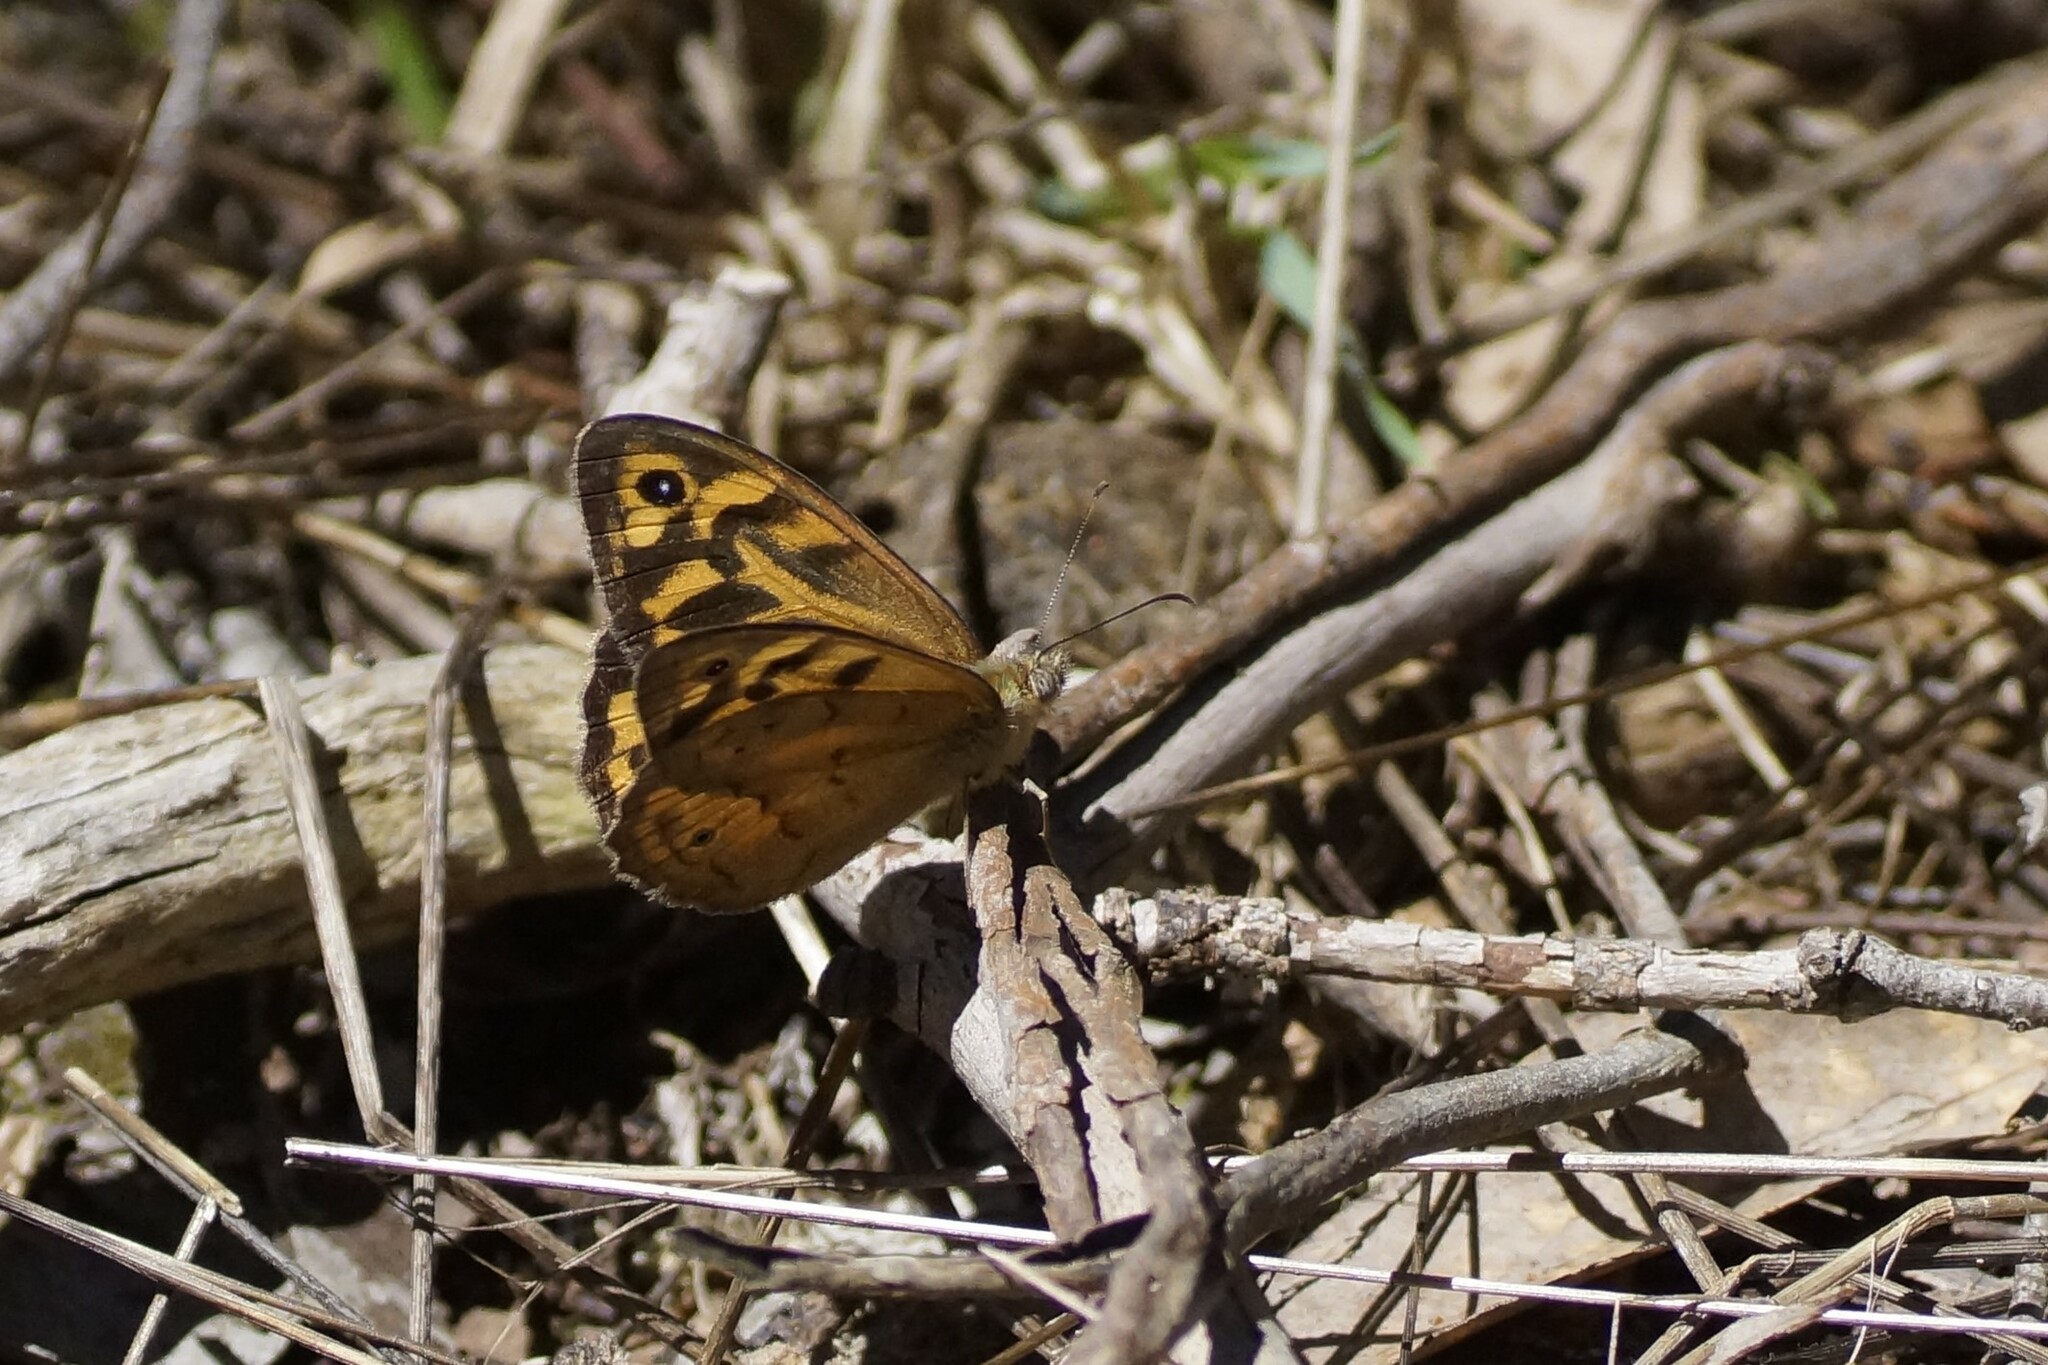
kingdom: Animalia
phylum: Arthropoda
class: Insecta
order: Lepidoptera
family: Nymphalidae
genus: Heteronympha
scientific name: Heteronympha merope
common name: Common brown
